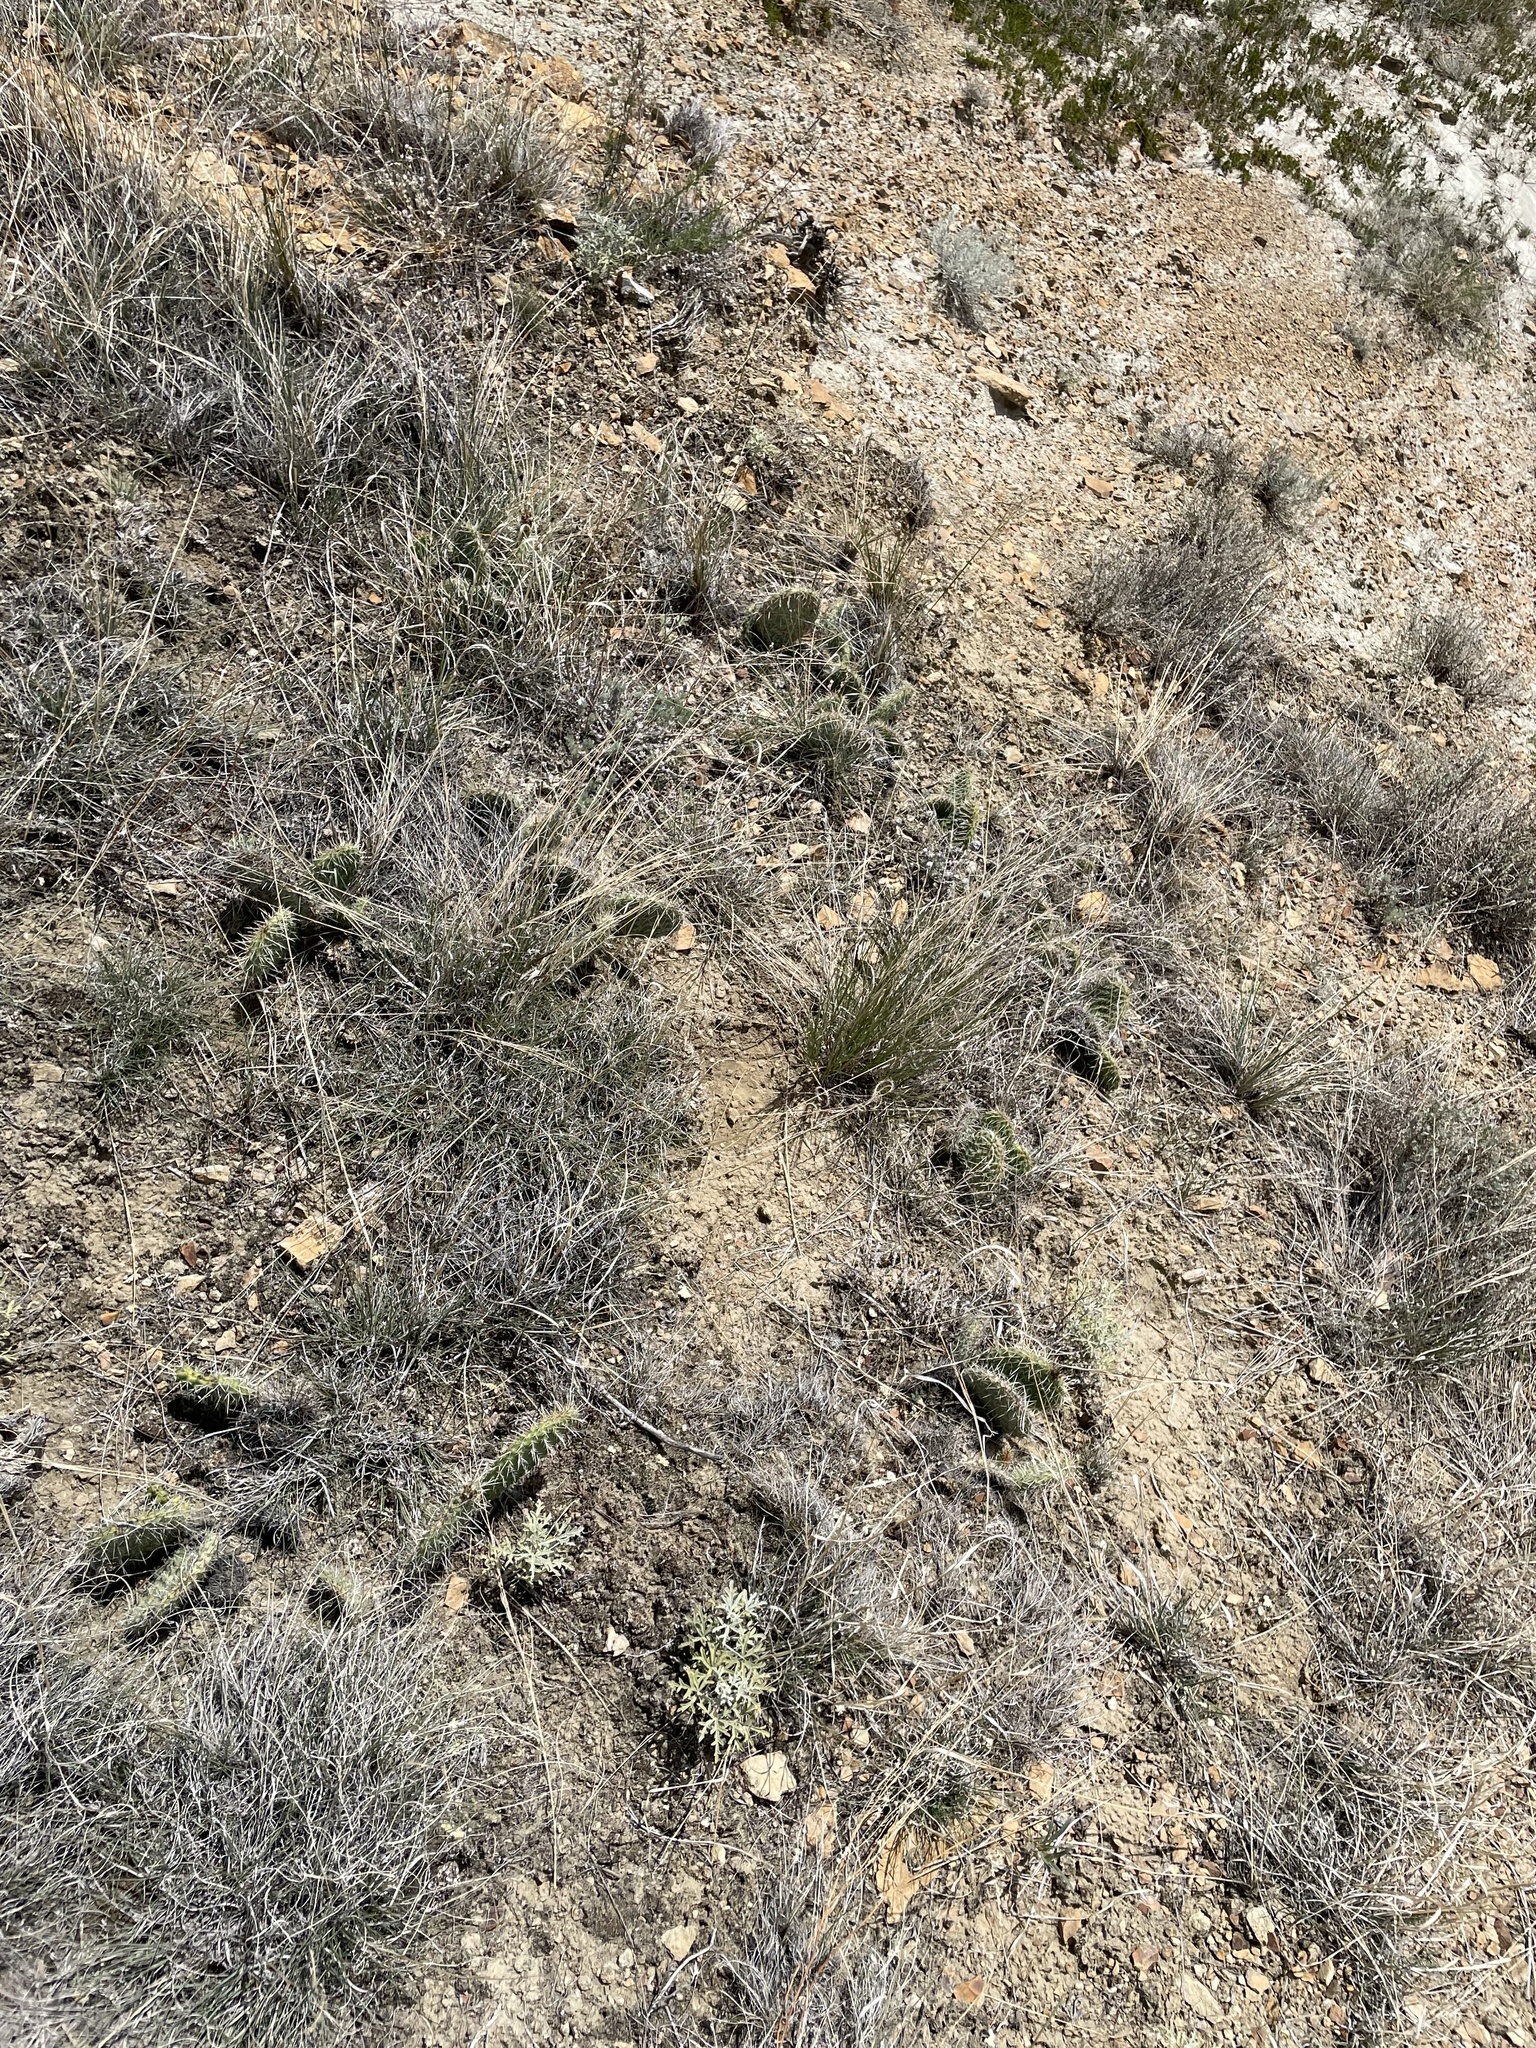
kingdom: Plantae
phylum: Tracheophyta
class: Magnoliopsida
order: Caryophyllales
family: Cactaceae
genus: Opuntia
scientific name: Opuntia polyacantha
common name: Plains prickly-pear
